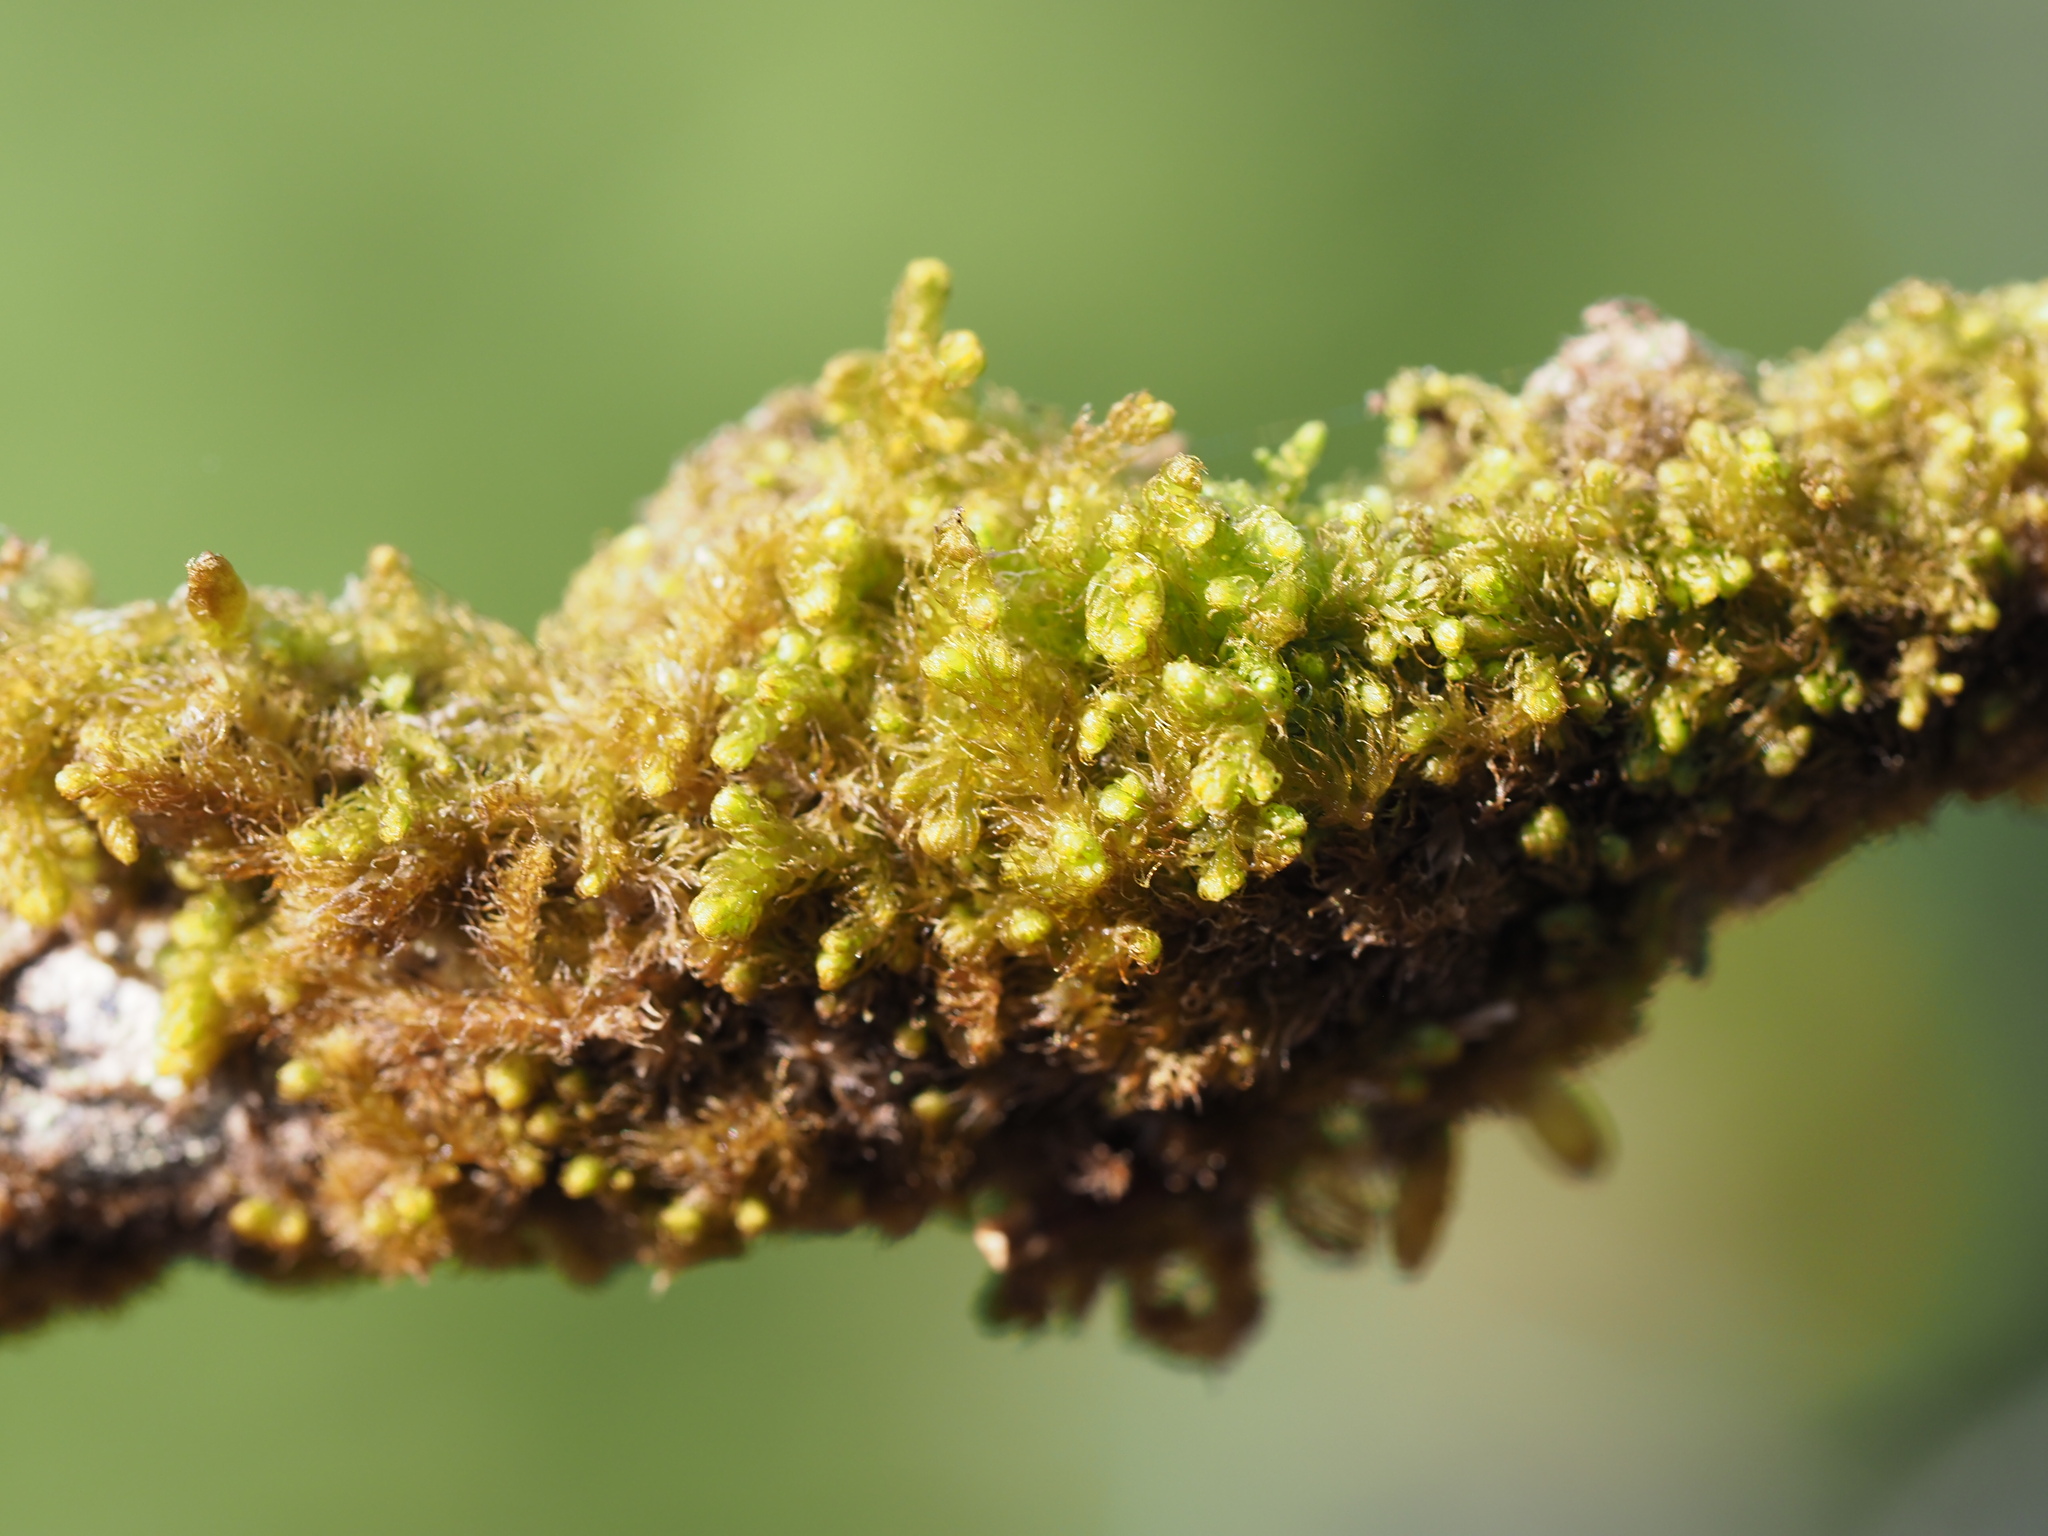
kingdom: Plantae
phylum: Marchantiophyta
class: Jungermanniopsida
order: Ptilidiales
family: Ptilidiaceae
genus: Ptilidium
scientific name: Ptilidium californicum
